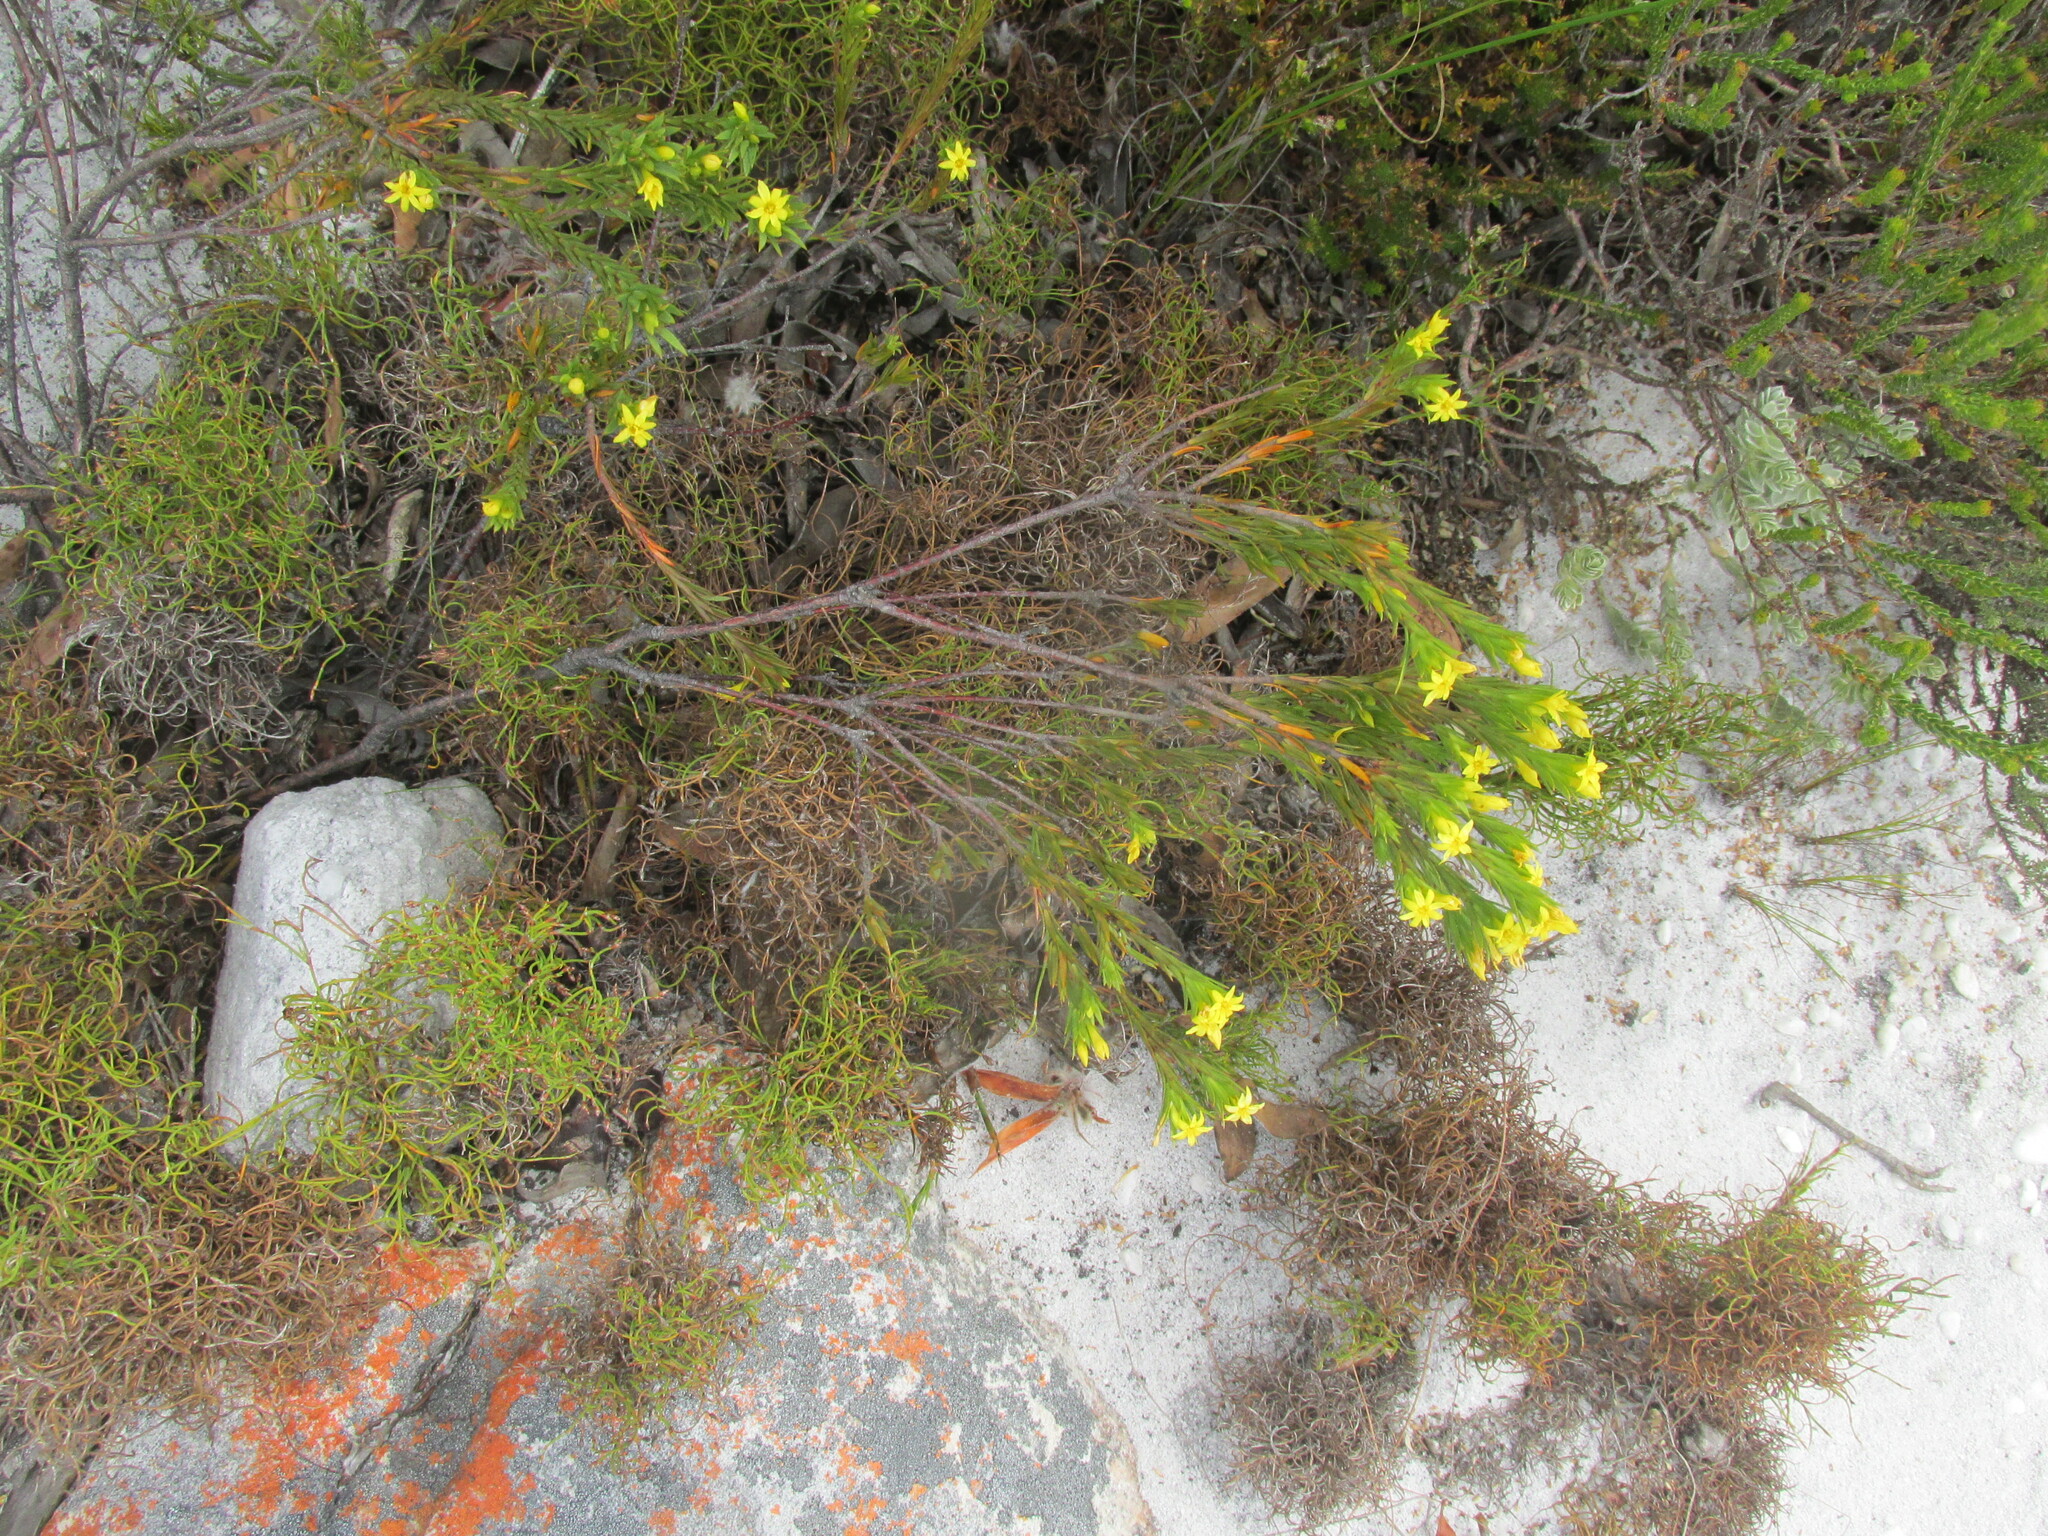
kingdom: Plantae
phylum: Tracheophyta
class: Magnoliopsida
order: Malvales
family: Thymelaeaceae
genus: Gnidia
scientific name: Gnidia juniperifolia
